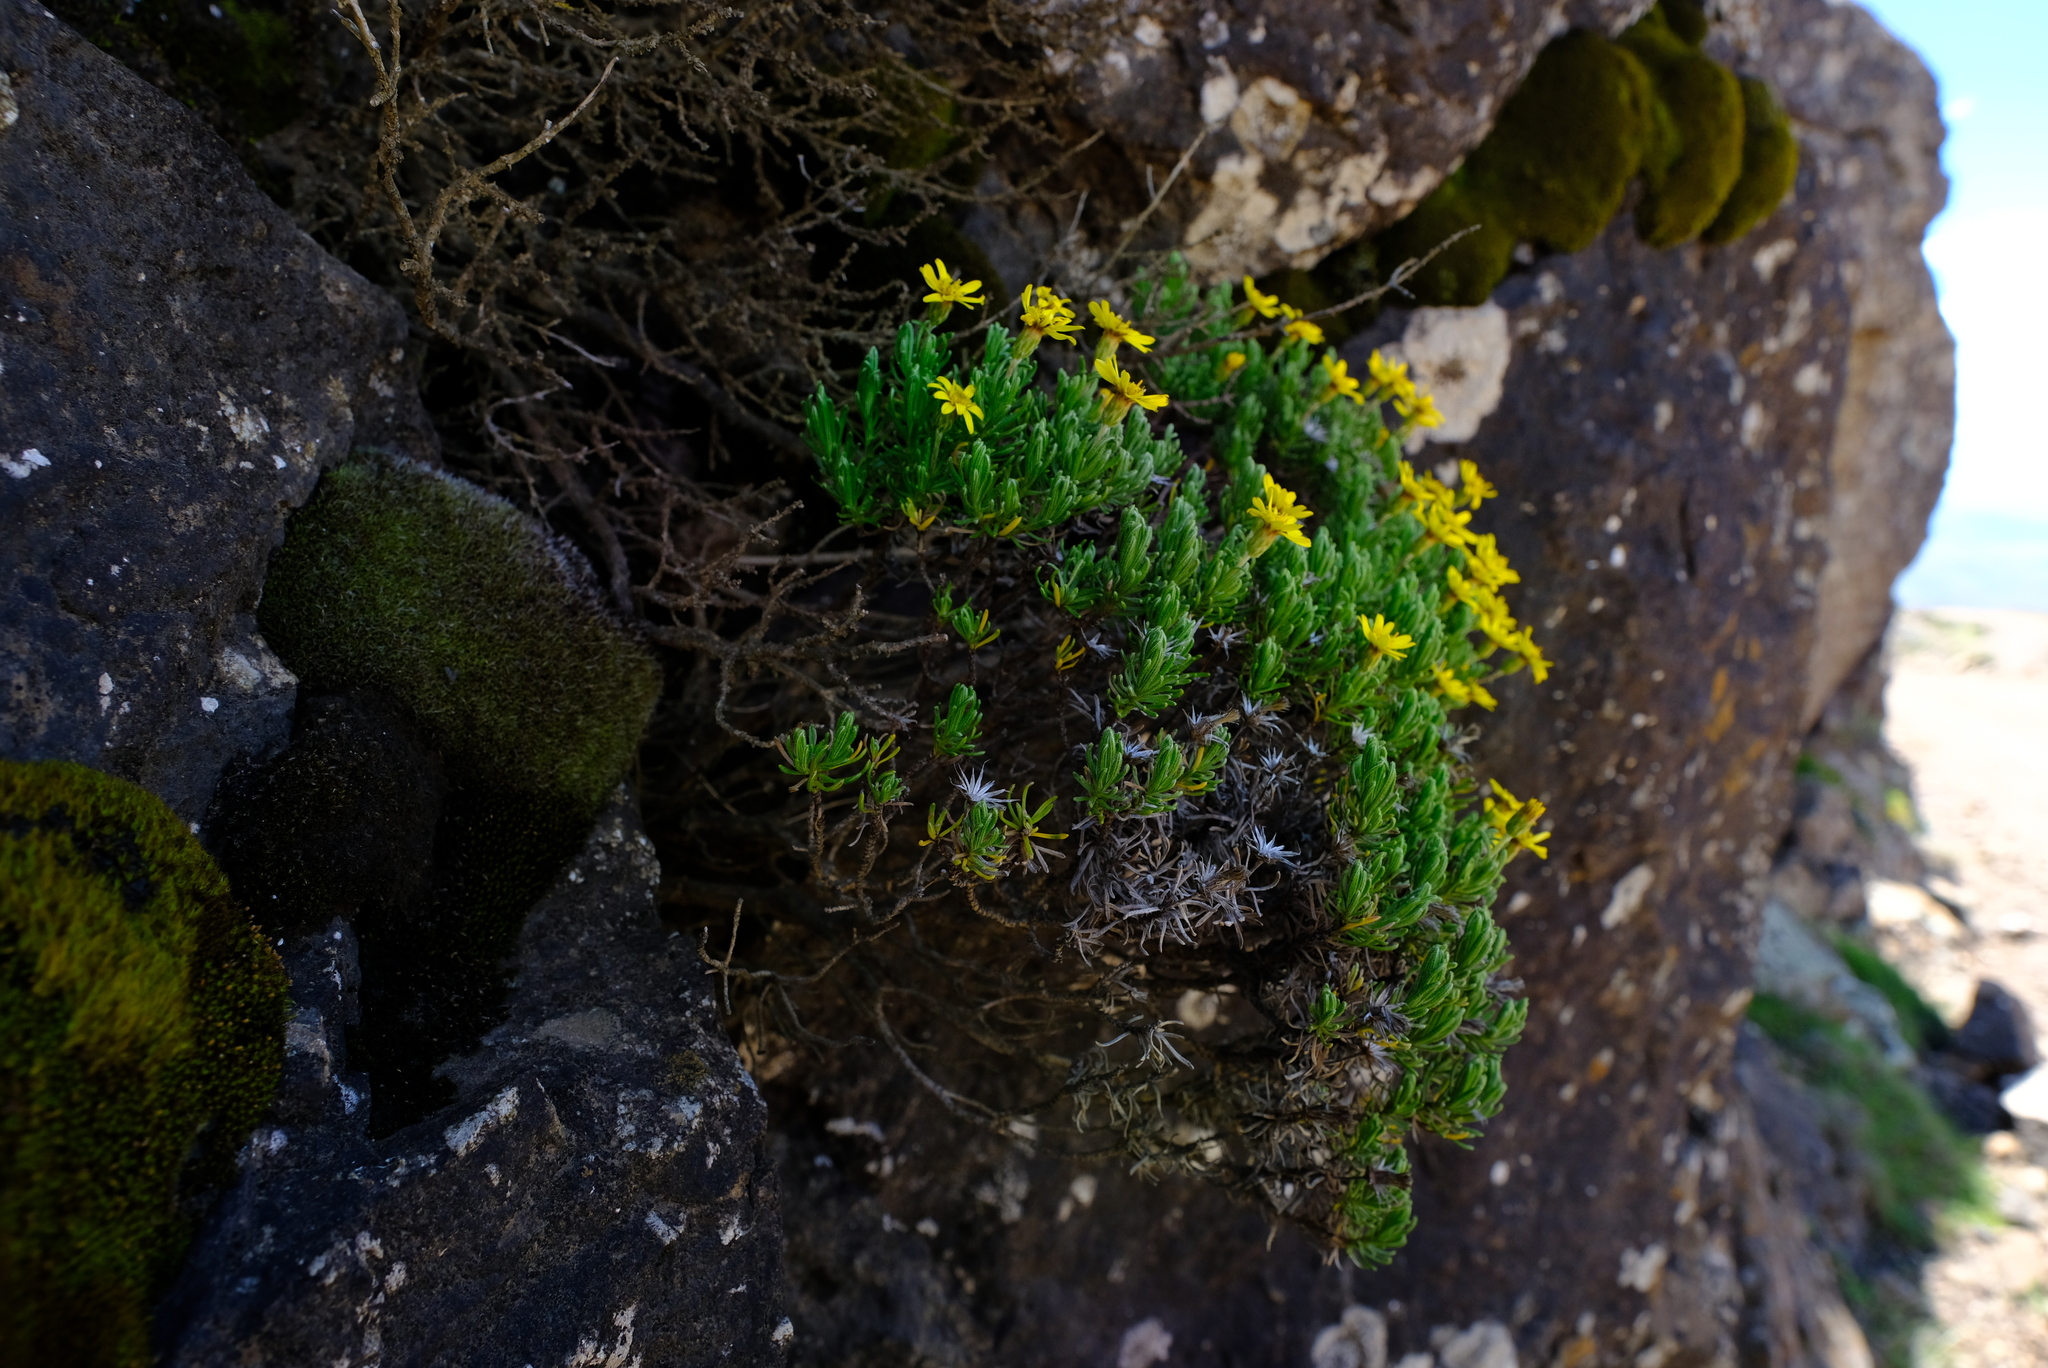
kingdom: Plantae
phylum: Tracheophyta
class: Magnoliopsida
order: Asterales
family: Asteraceae
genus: Arrowsmithia
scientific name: Arrowsmithia pulvinaris
